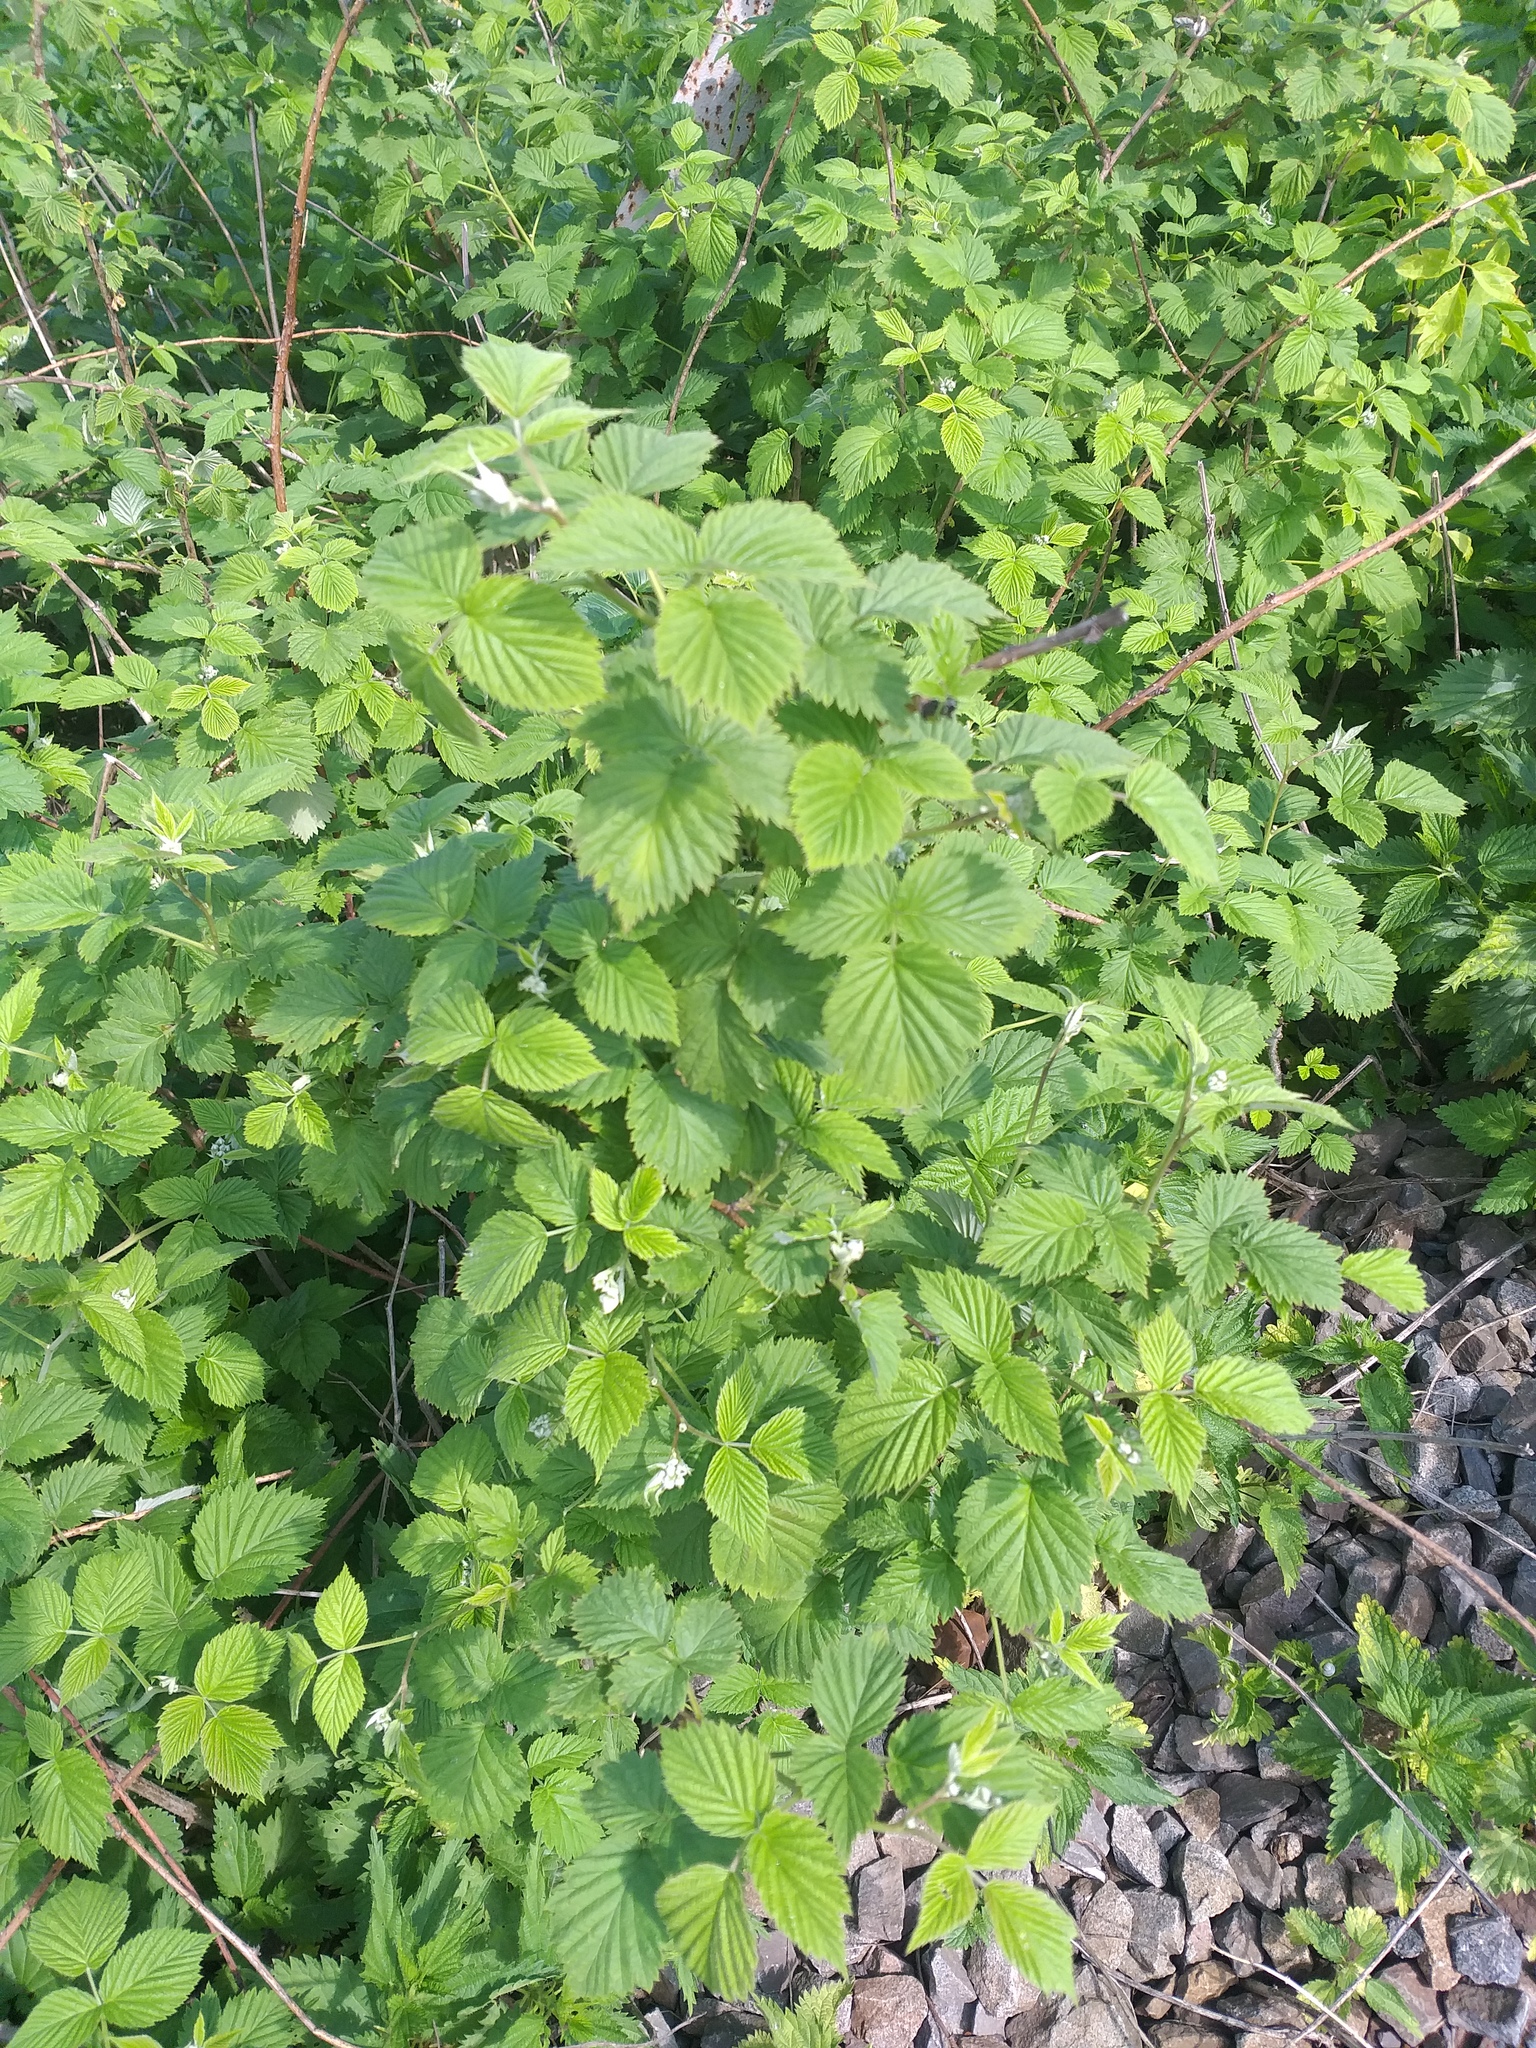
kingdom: Plantae
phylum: Tracheophyta
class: Magnoliopsida
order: Rosales
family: Rosaceae
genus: Rubus
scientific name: Rubus idaeus
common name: Raspberry
